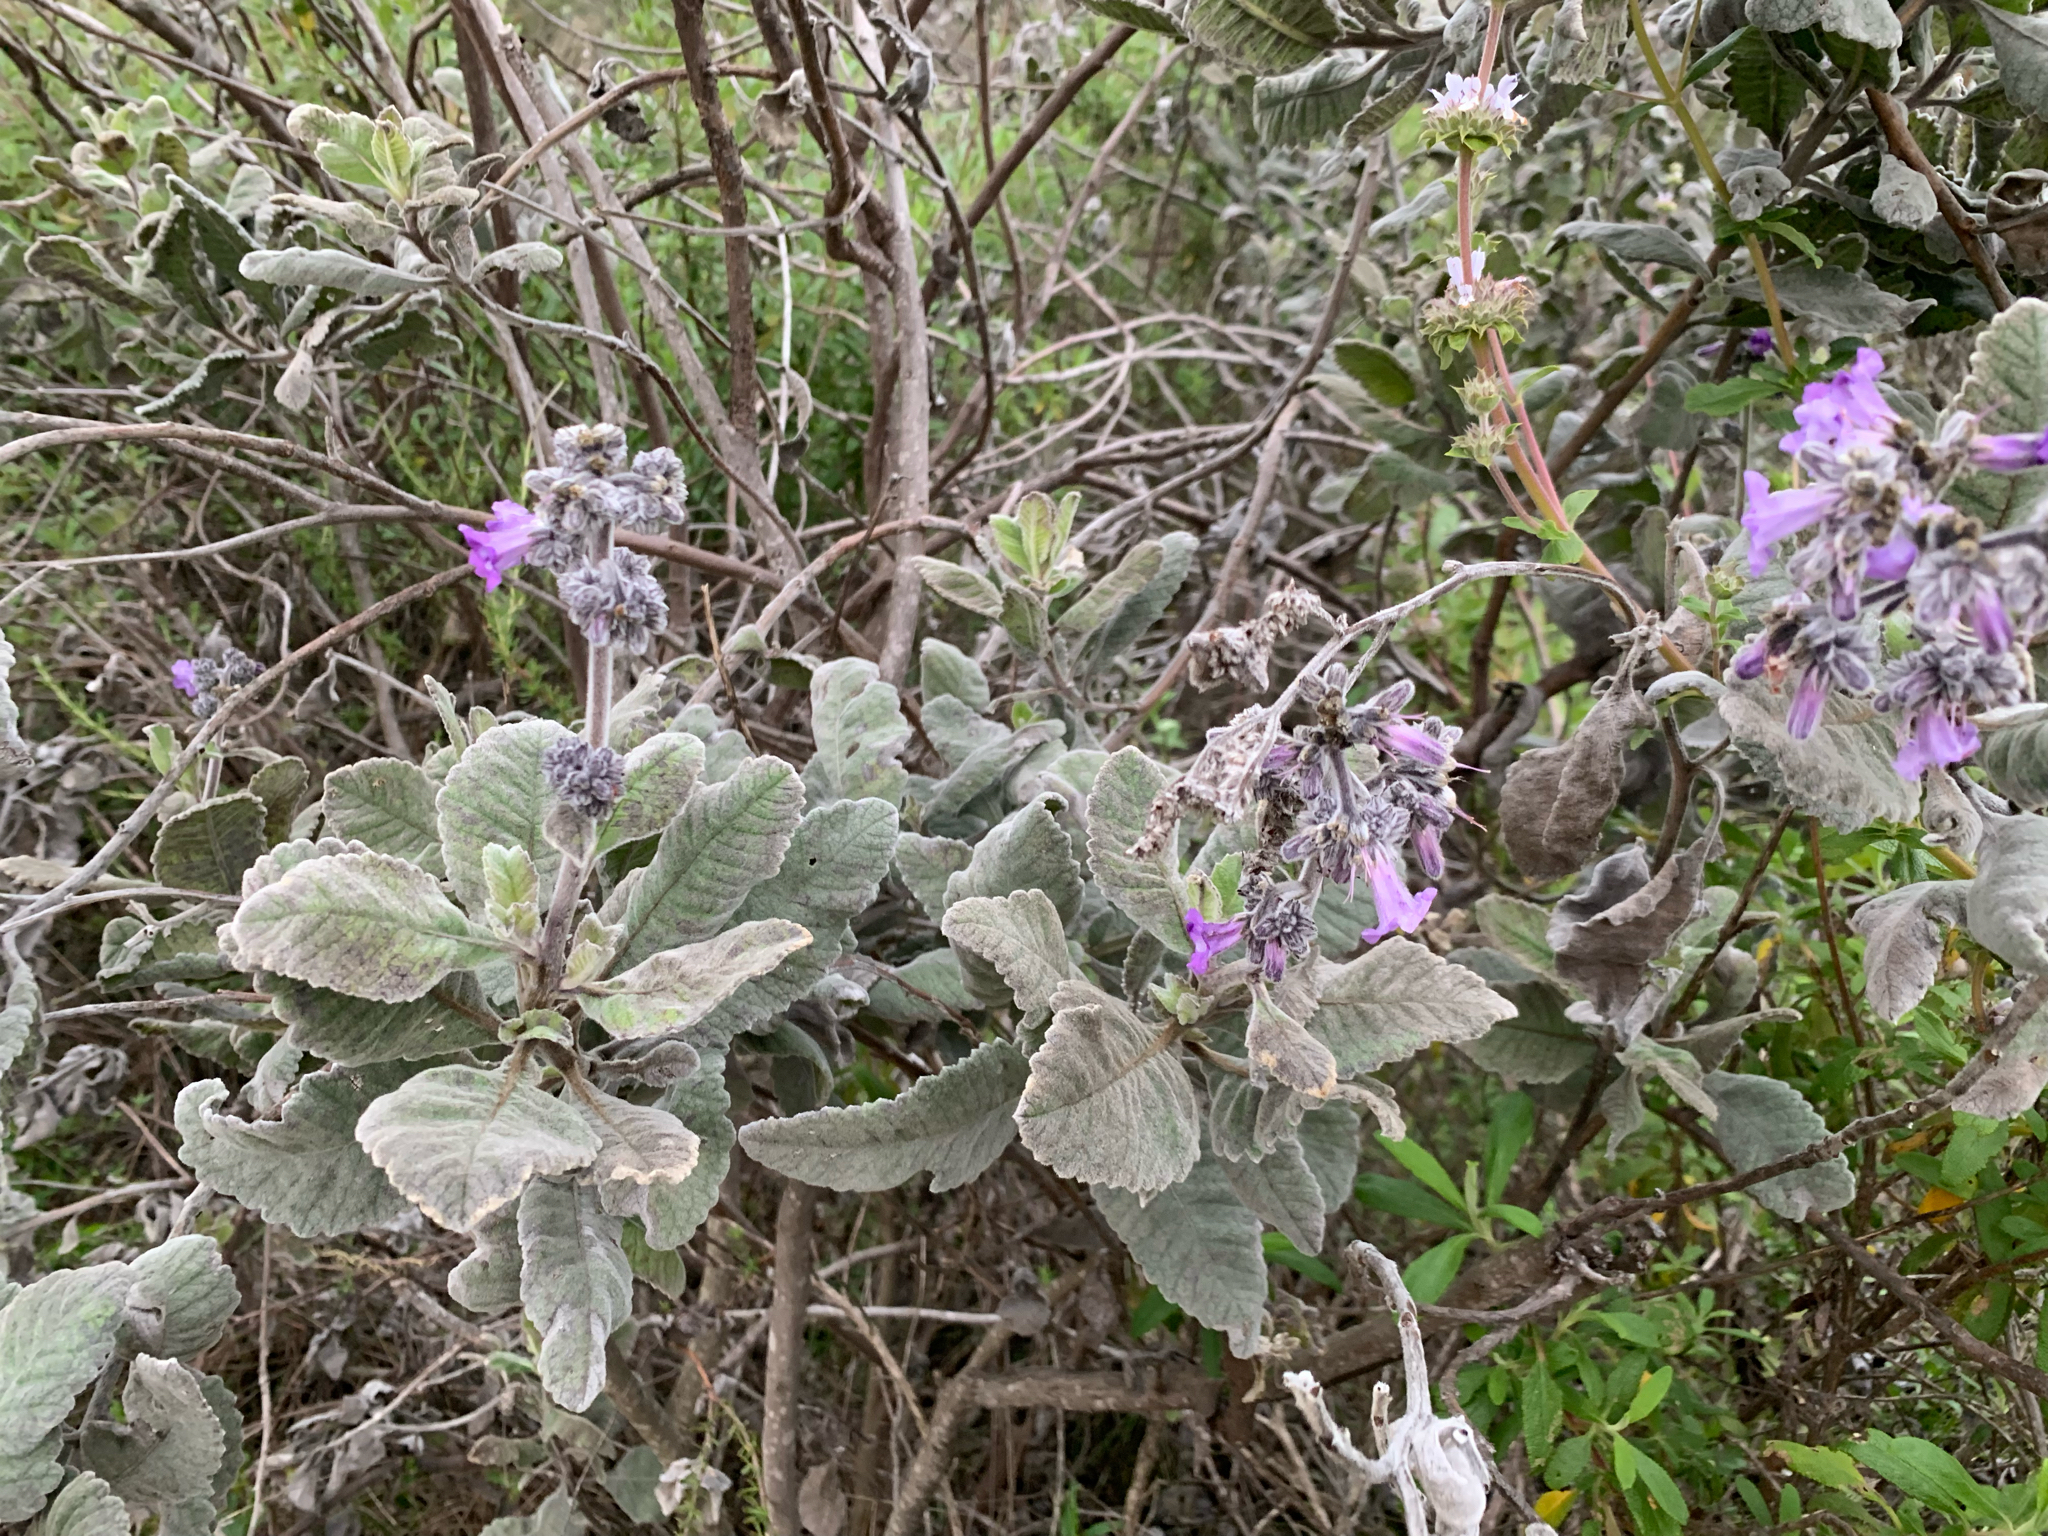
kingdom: Plantae
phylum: Tracheophyta
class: Magnoliopsida
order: Boraginales
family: Namaceae
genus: Eriodictyon
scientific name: Eriodictyon crassifolium
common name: Thick-leaf yerba-santa
